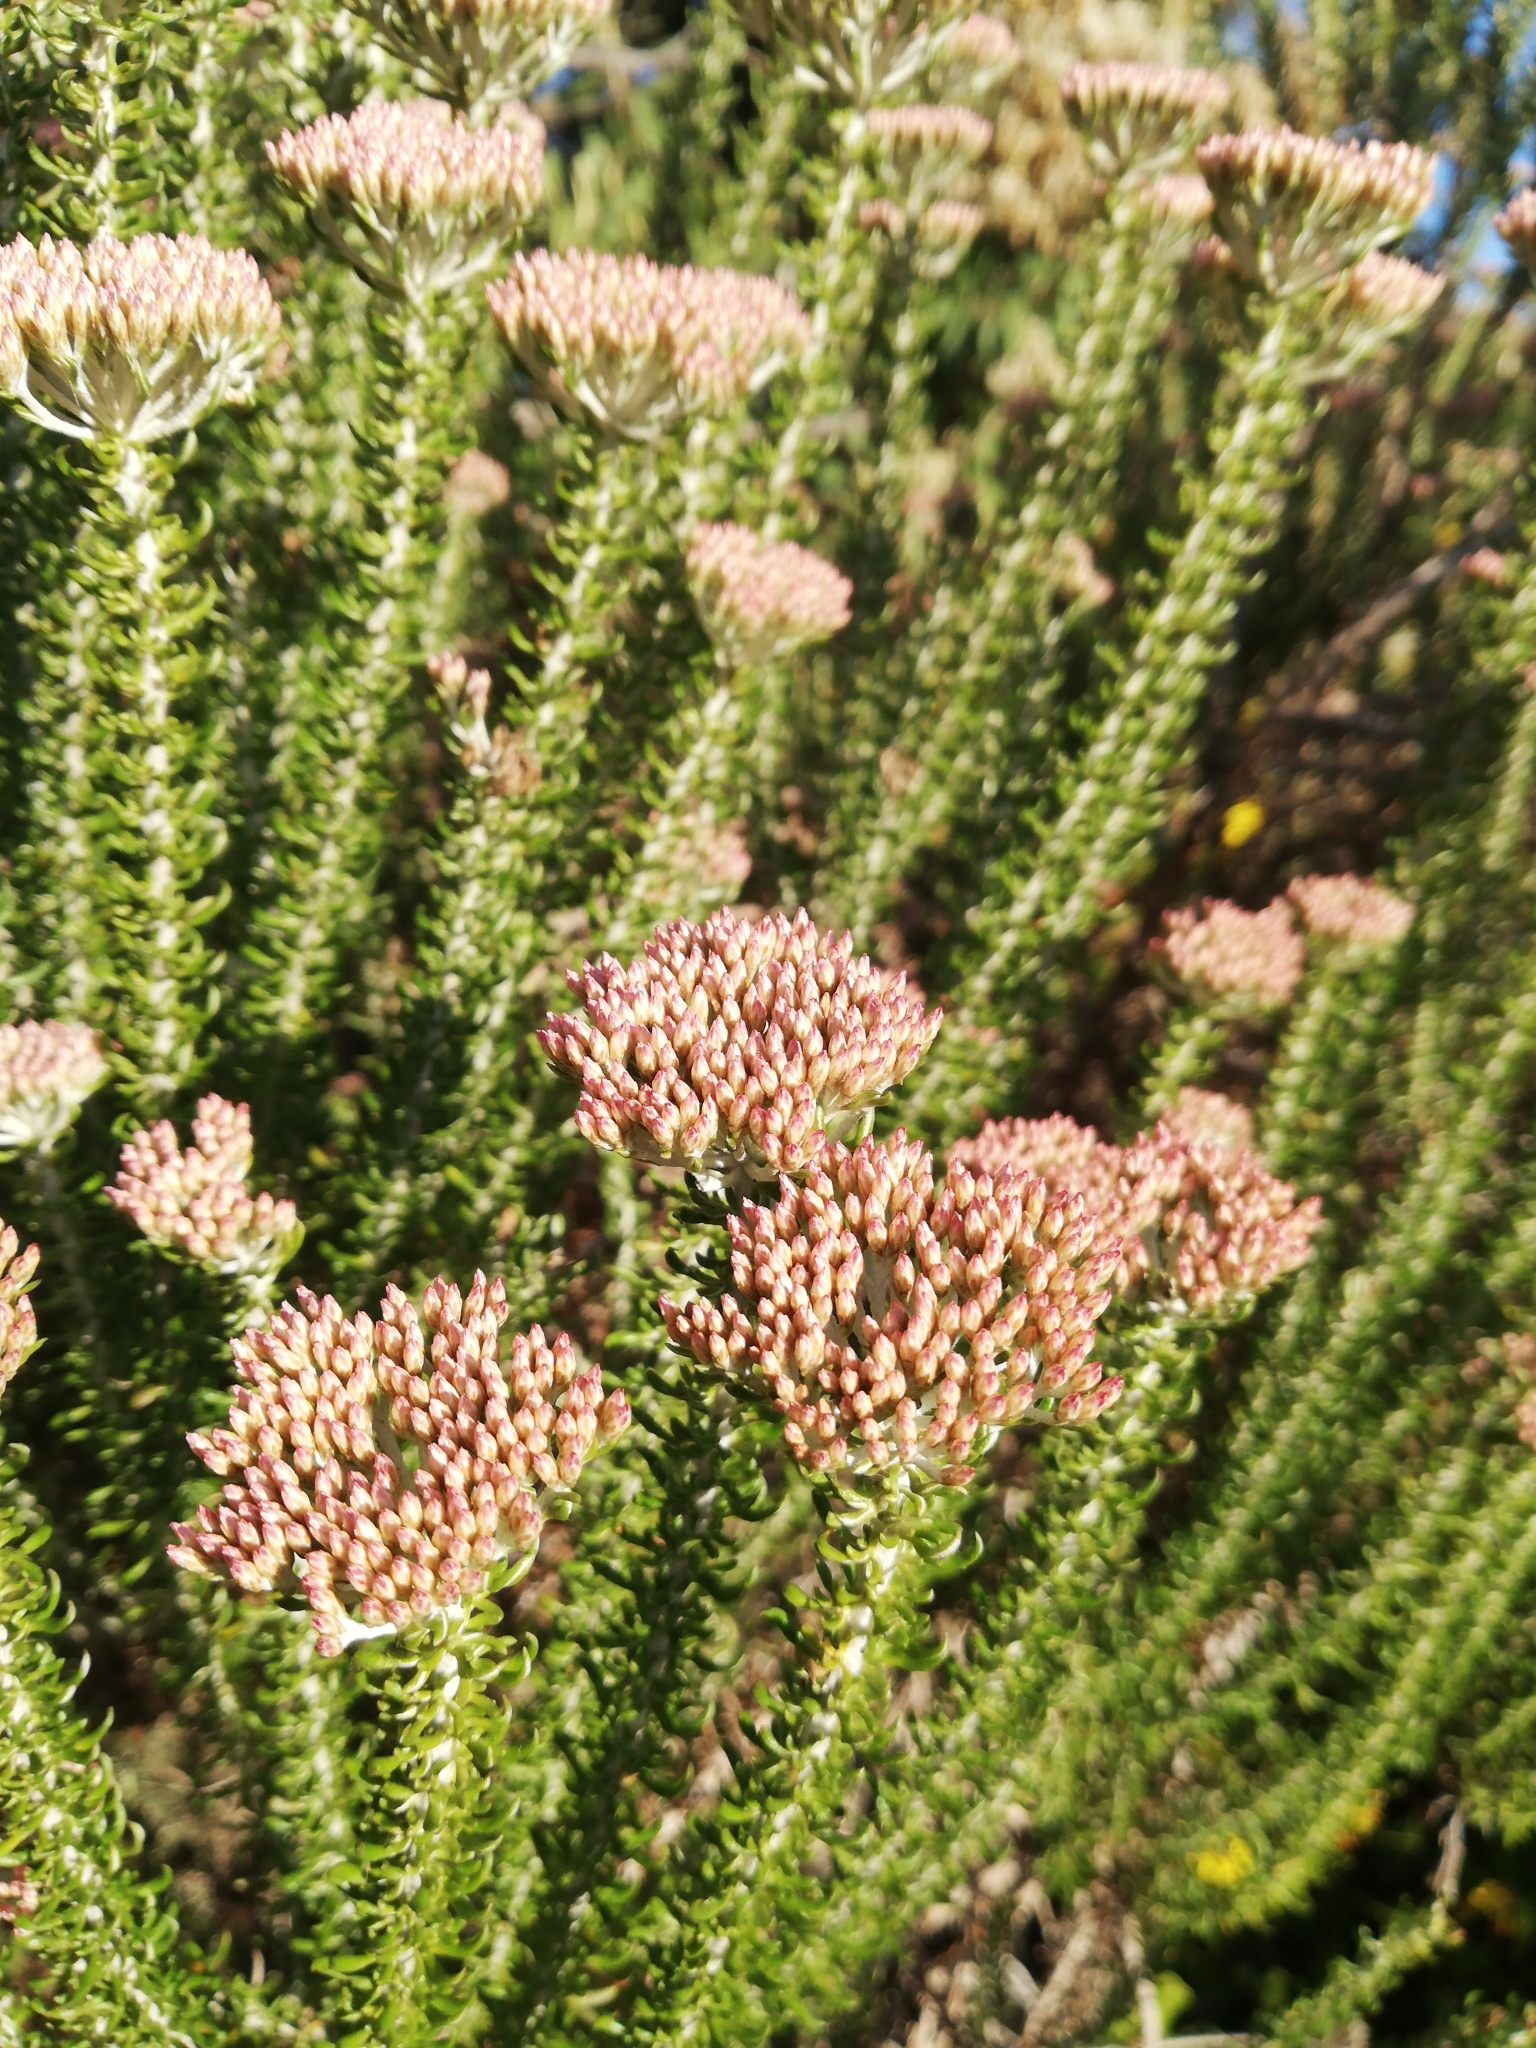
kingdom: Plantae
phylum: Tracheophyta
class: Magnoliopsida
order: Asterales
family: Asteraceae
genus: Metalasia
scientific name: Metalasia muricata
